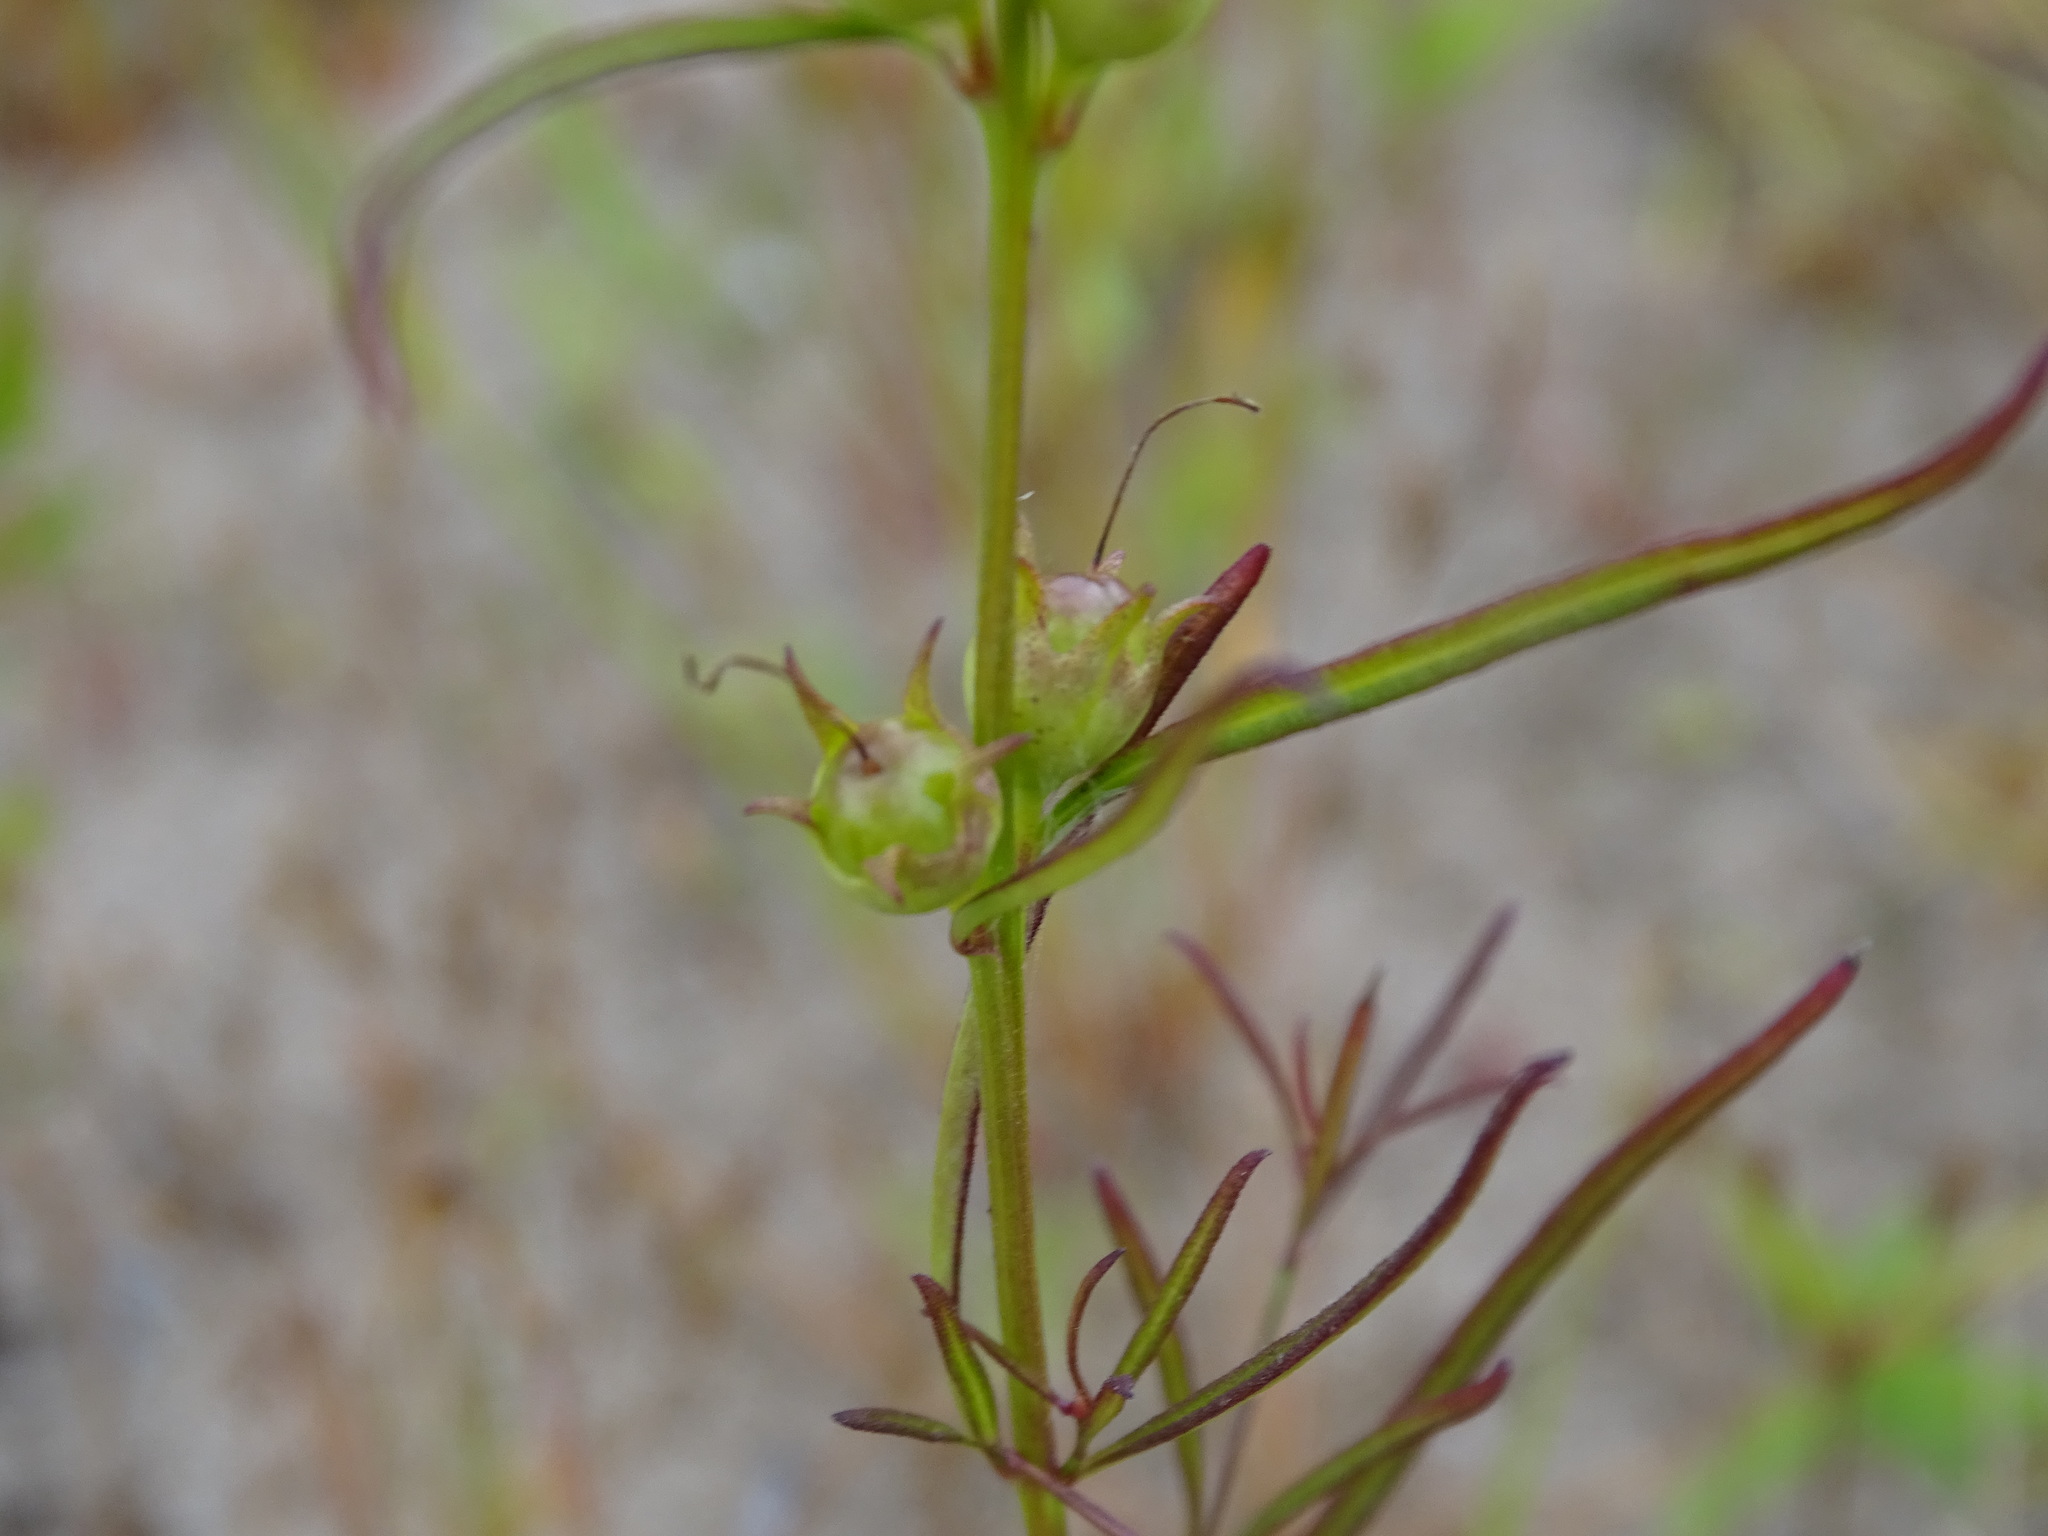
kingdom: Plantae
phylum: Tracheophyta
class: Magnoliopsida
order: Lamiales
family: Orobanchaceae
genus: Agalinis
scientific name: Agalinis purpurea
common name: Purple false foxglove
